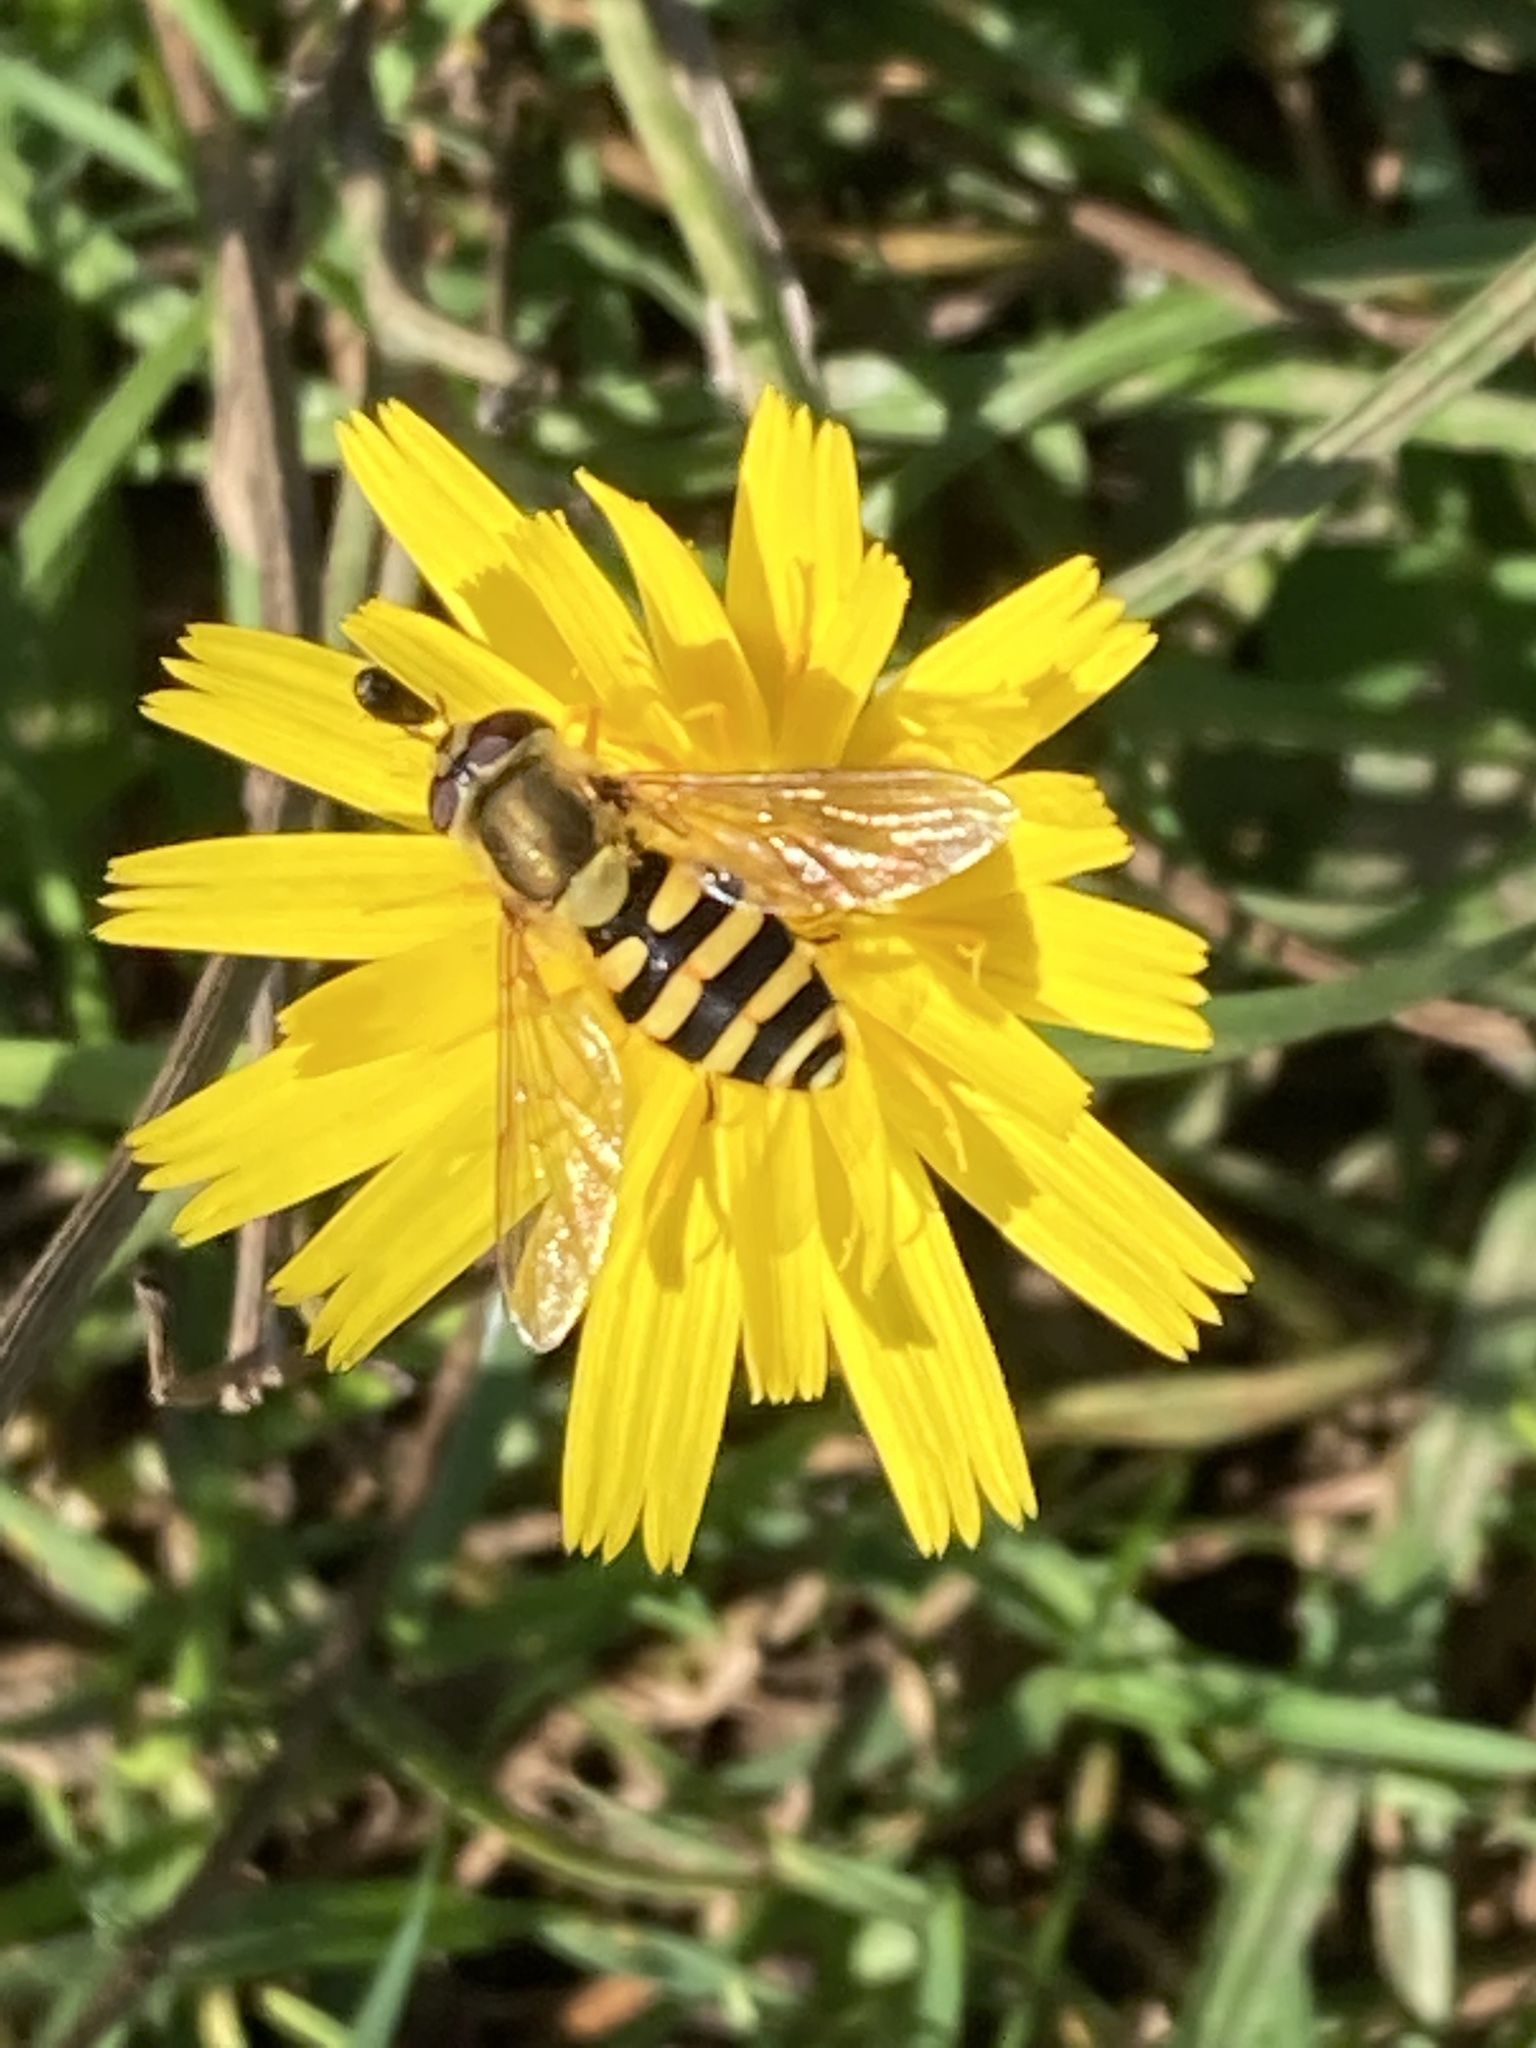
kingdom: Animalia
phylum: Arthropoda
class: Insecta
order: Diptera
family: Syrphidae
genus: Syrphus
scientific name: Syrphus
